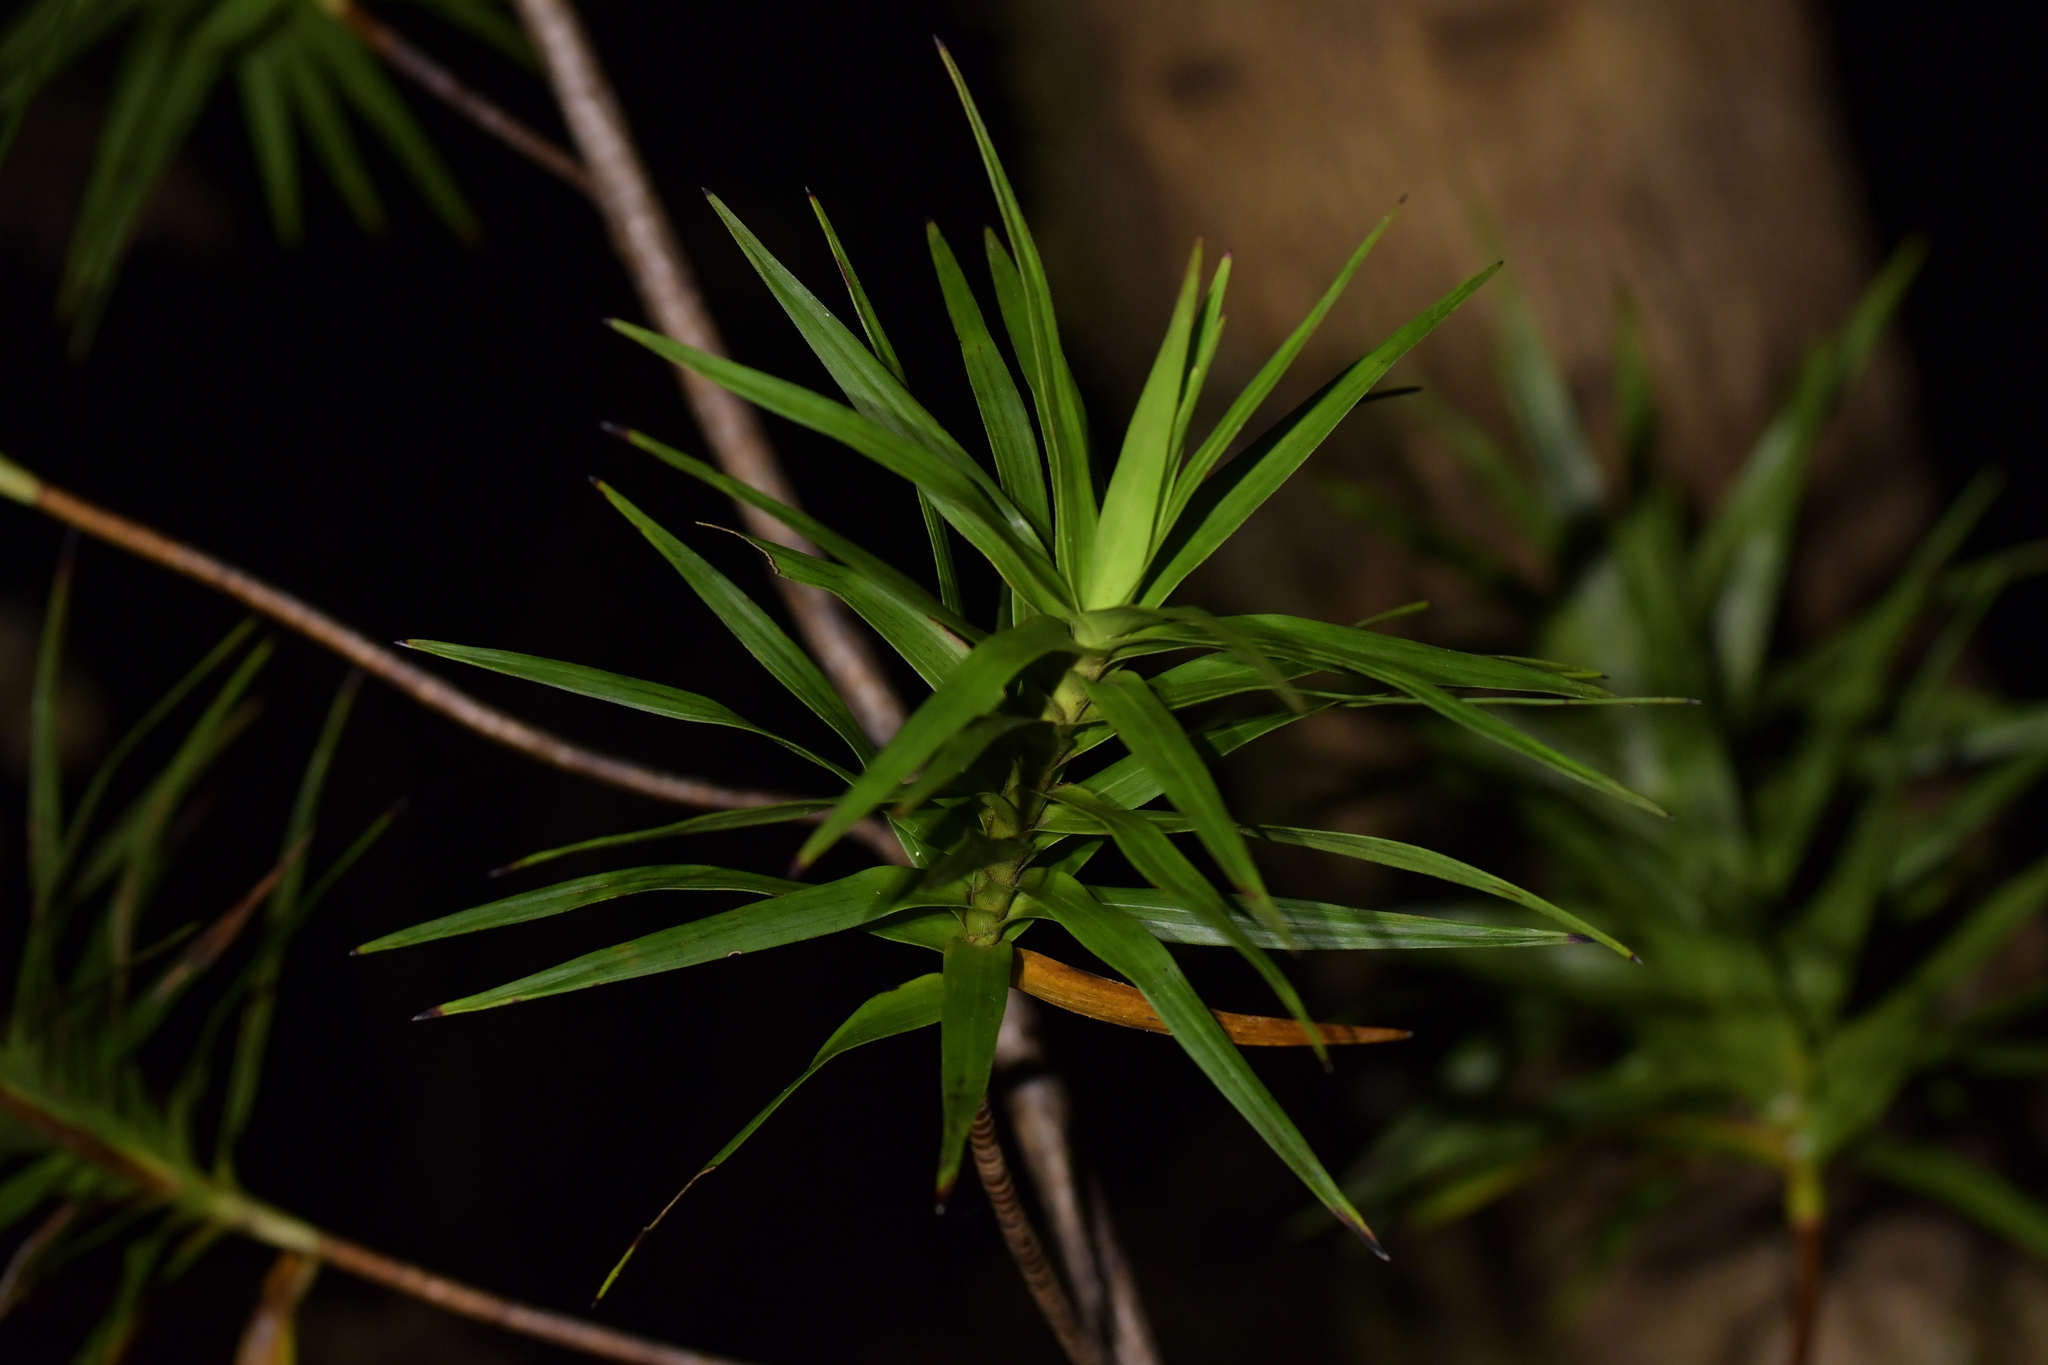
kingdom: Plantae
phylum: Tracheophyta
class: Magnoliopsida
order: Ericales
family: Ericaceae
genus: Dracophyllum
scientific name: Dracophyllum sinclairii
